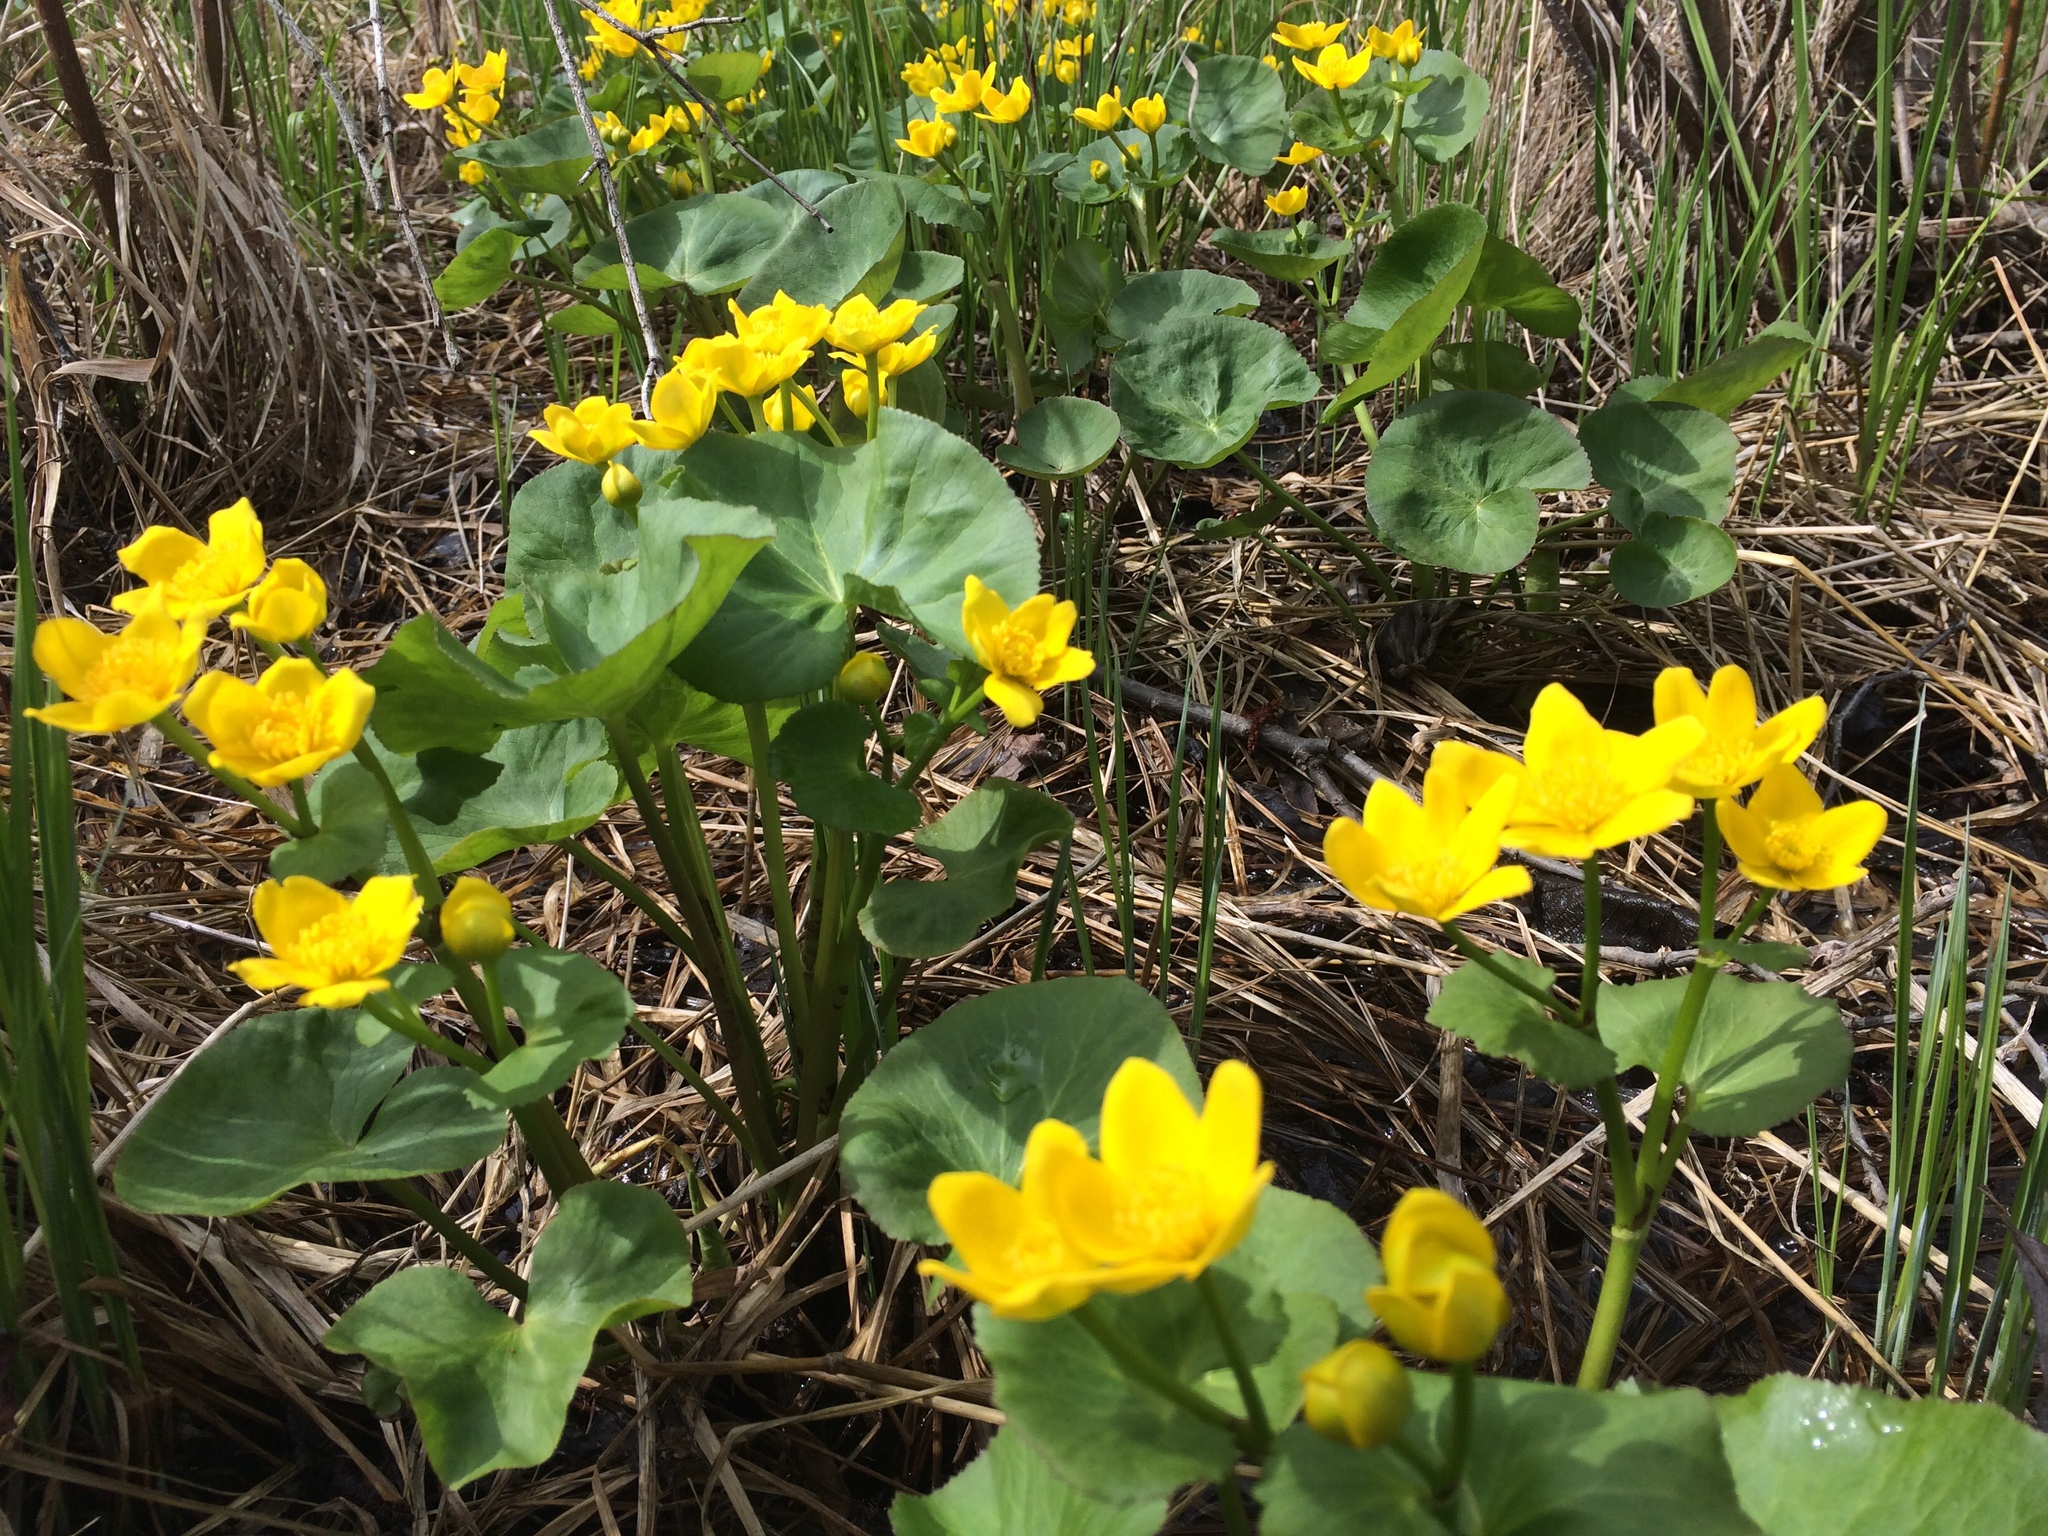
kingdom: Plantae
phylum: Tracheophyta
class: Magnoliopsida
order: Ranunculales
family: Ranunculaceae
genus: Caltha
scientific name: Caltha palustris
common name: Marsh marigold
